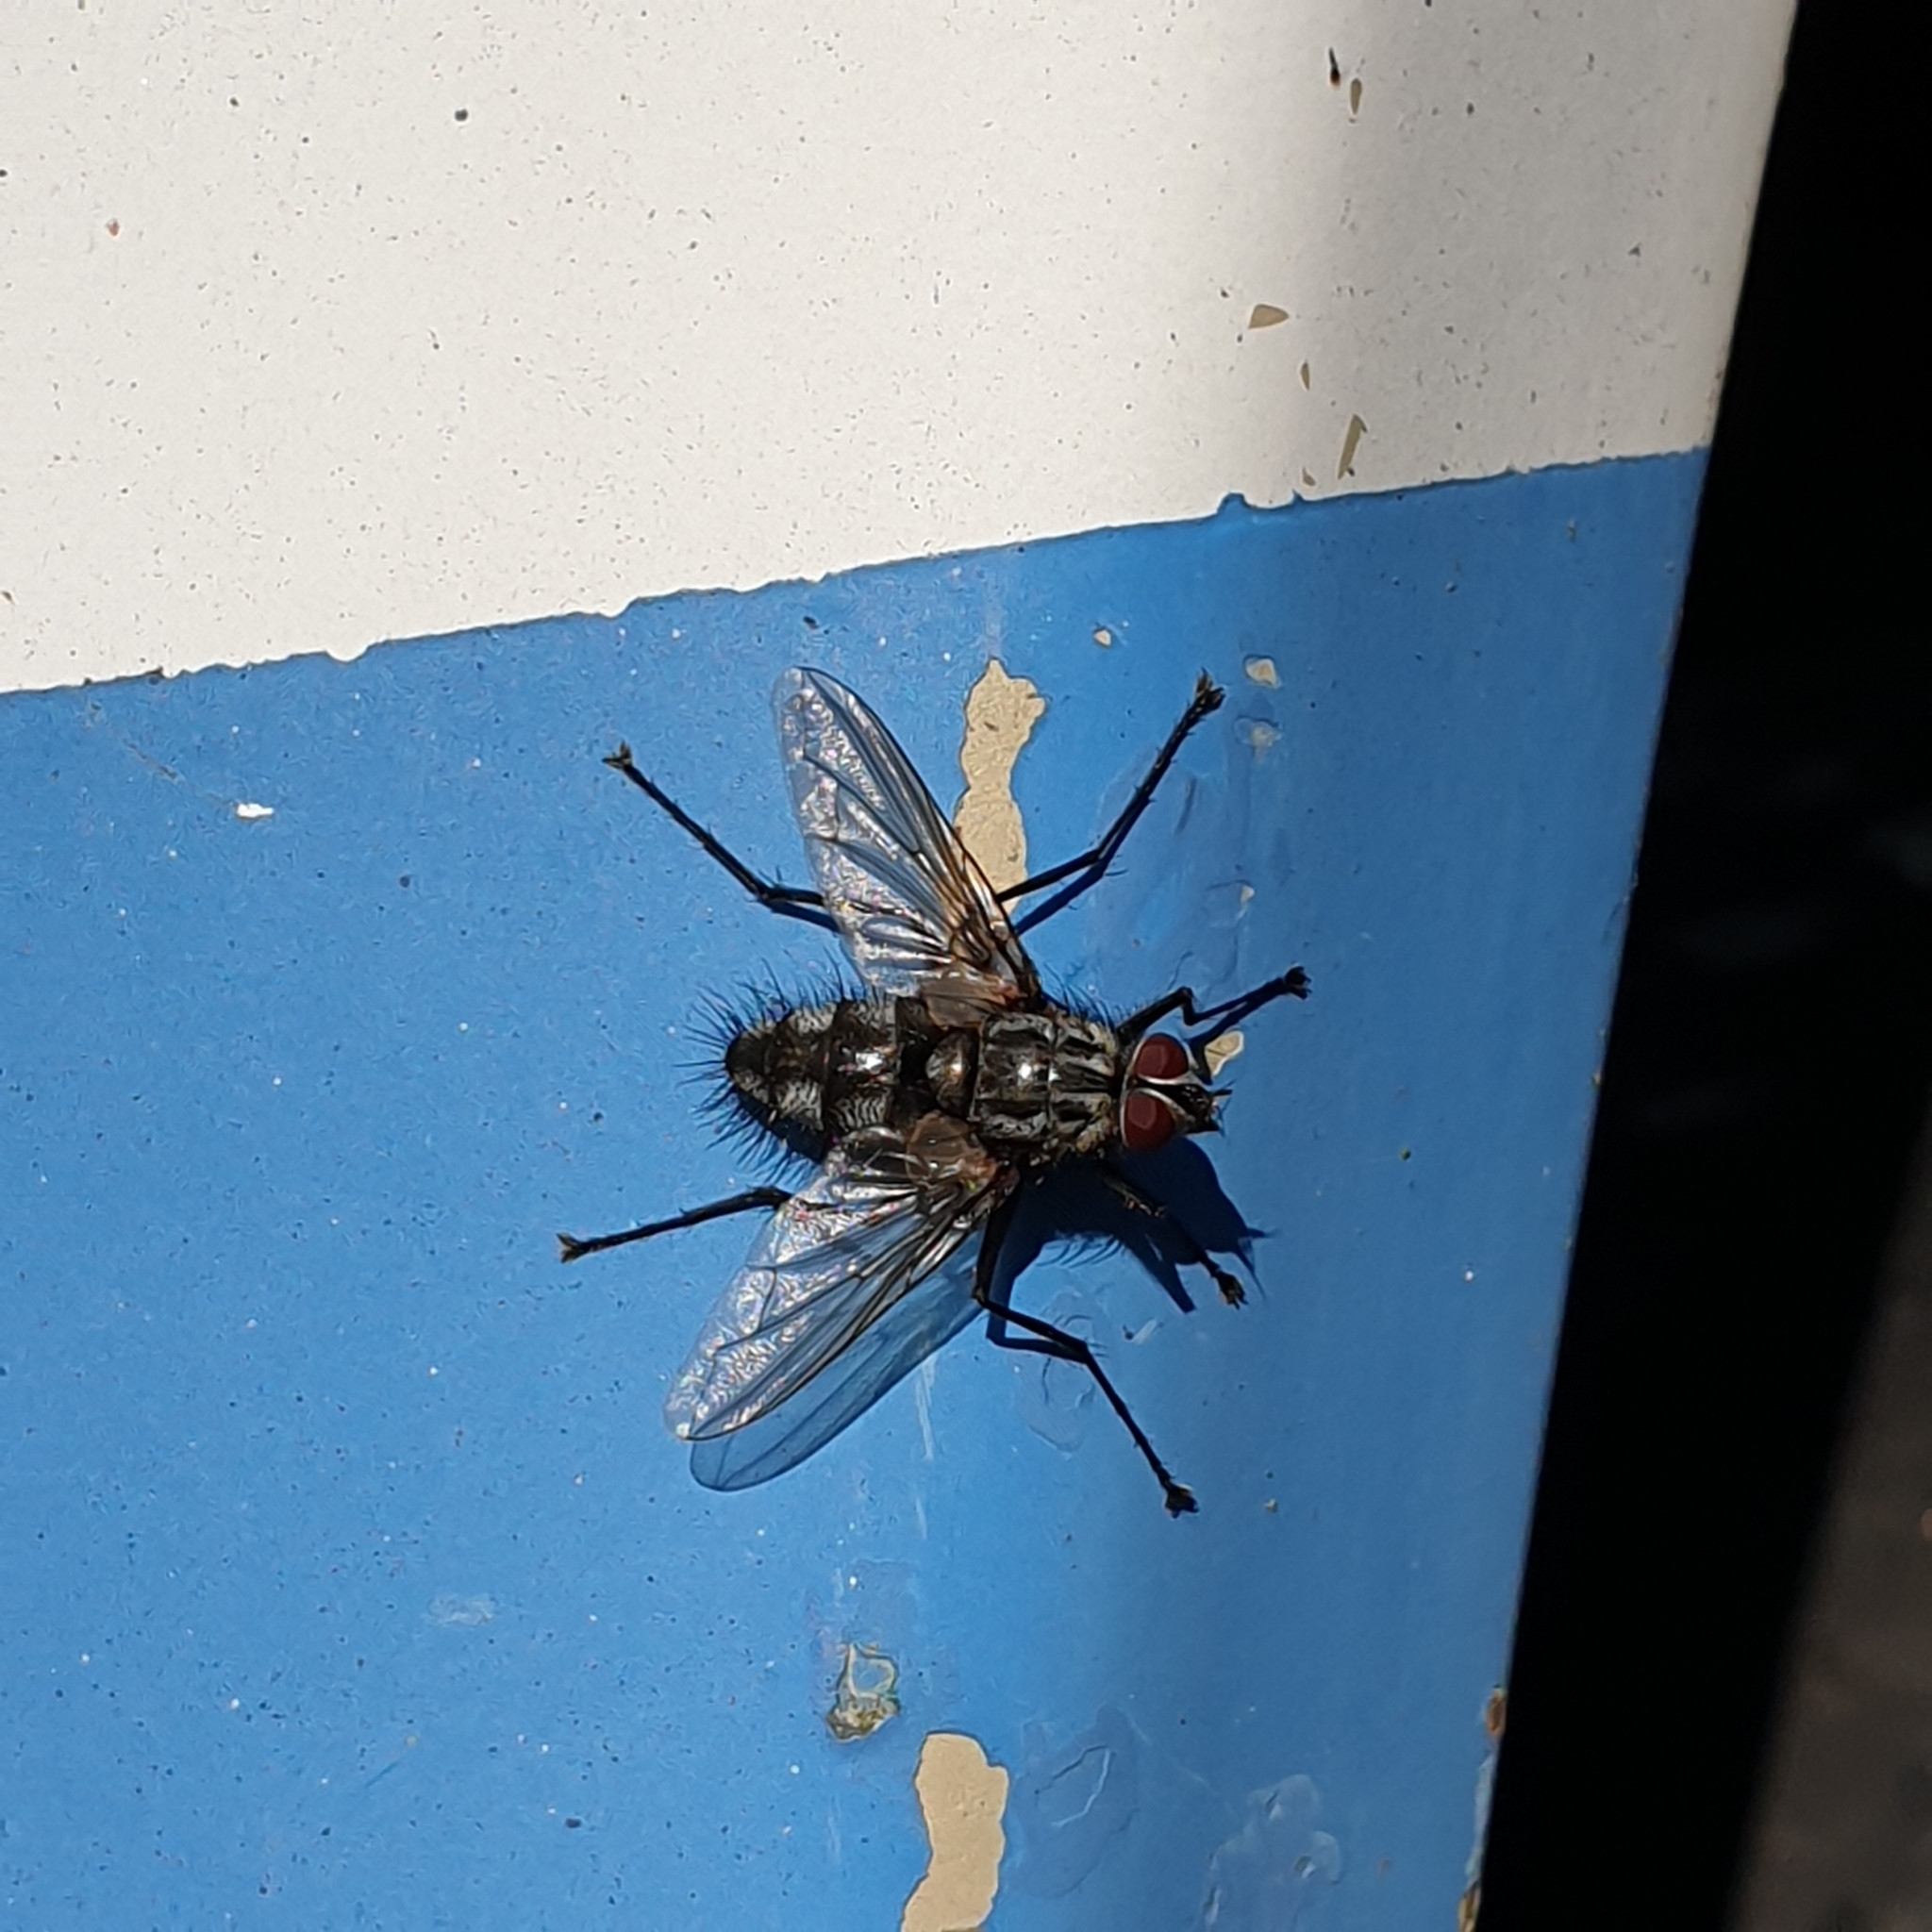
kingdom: Animalia
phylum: Arthropoda
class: Insecta
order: Diptera
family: Tachinidae
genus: Dinera
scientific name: Dinera ferina
